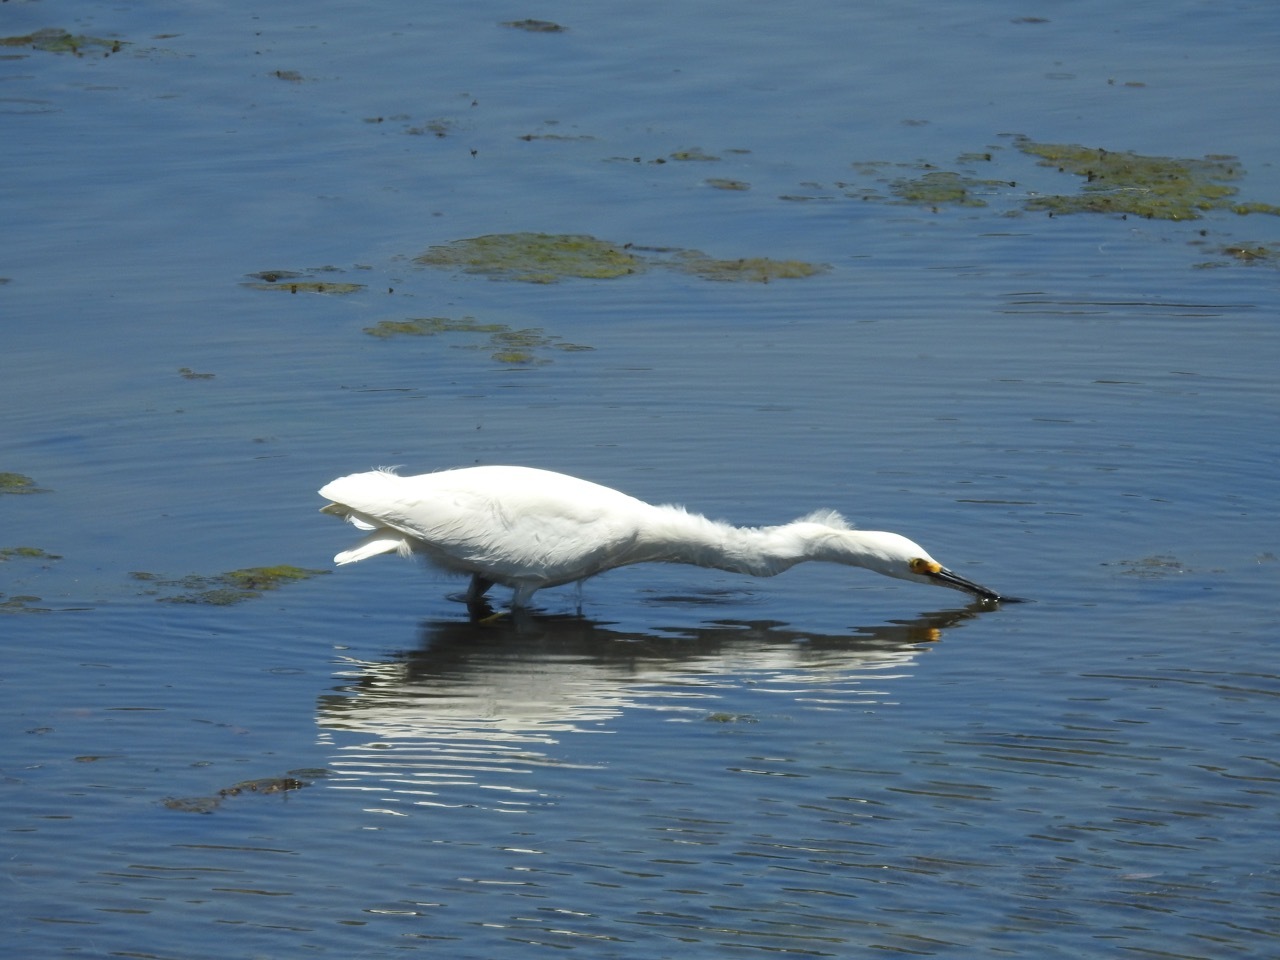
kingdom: Animalia
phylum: Chordata
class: Aves
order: Pelecaniformes
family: Ardeidae
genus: Egretta
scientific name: Egretta thula
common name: Snowy egret
